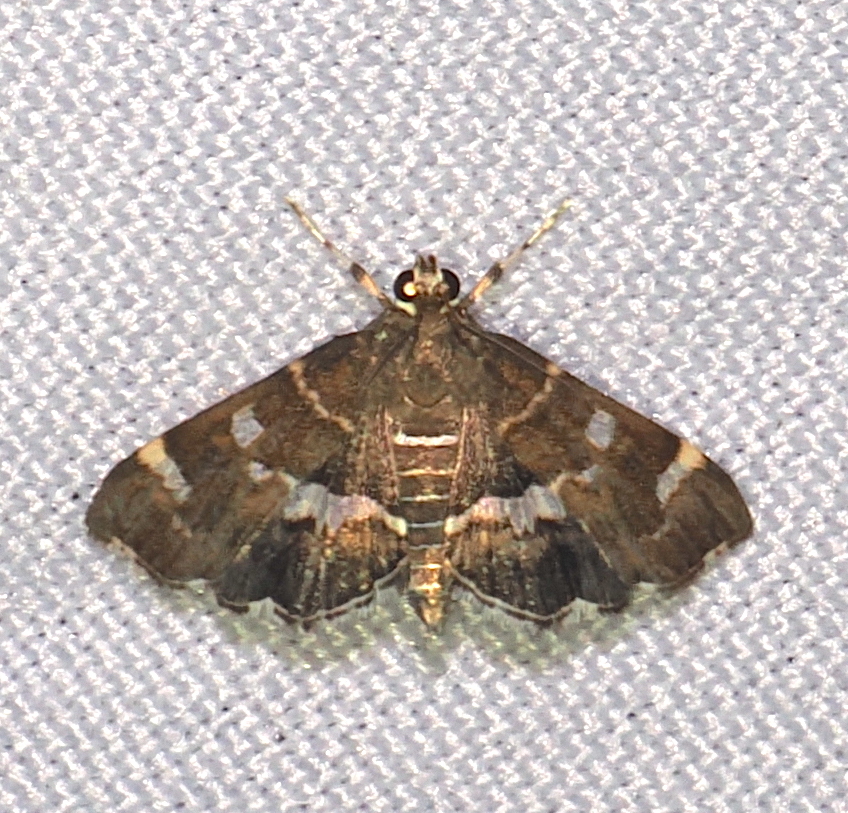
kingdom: Animalia
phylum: Arthropoda
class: Insecta
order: Lepidoptera
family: Crambidae
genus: Hymenia
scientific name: Hymenia perspectalis
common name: Spotted beet webworm
